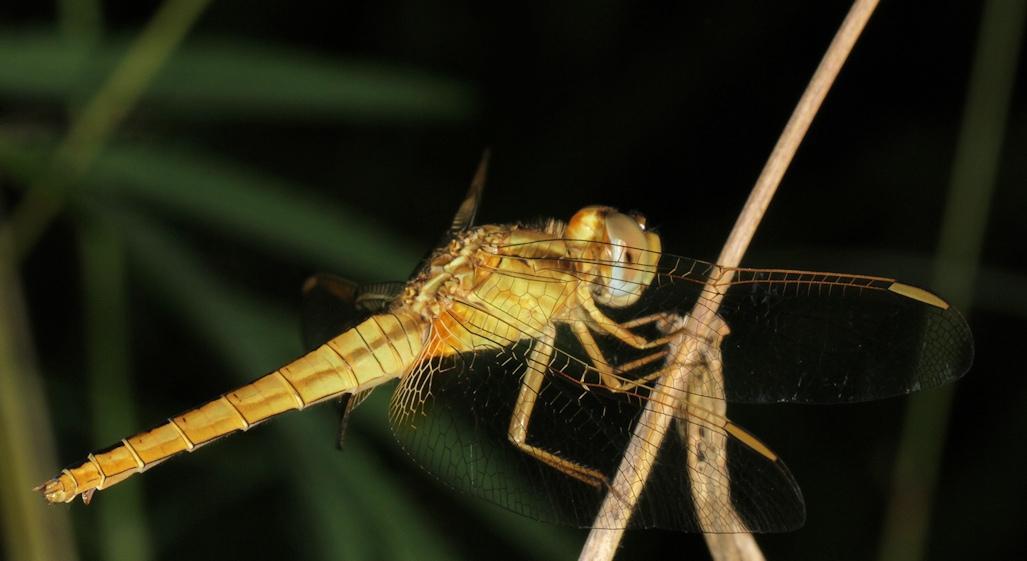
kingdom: Animalia
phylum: Arthropoda
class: Insecta
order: Odonata
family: Libellulidae
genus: Crocothemis
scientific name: Crocothemis erythraea
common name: Scarlet dragonfly
